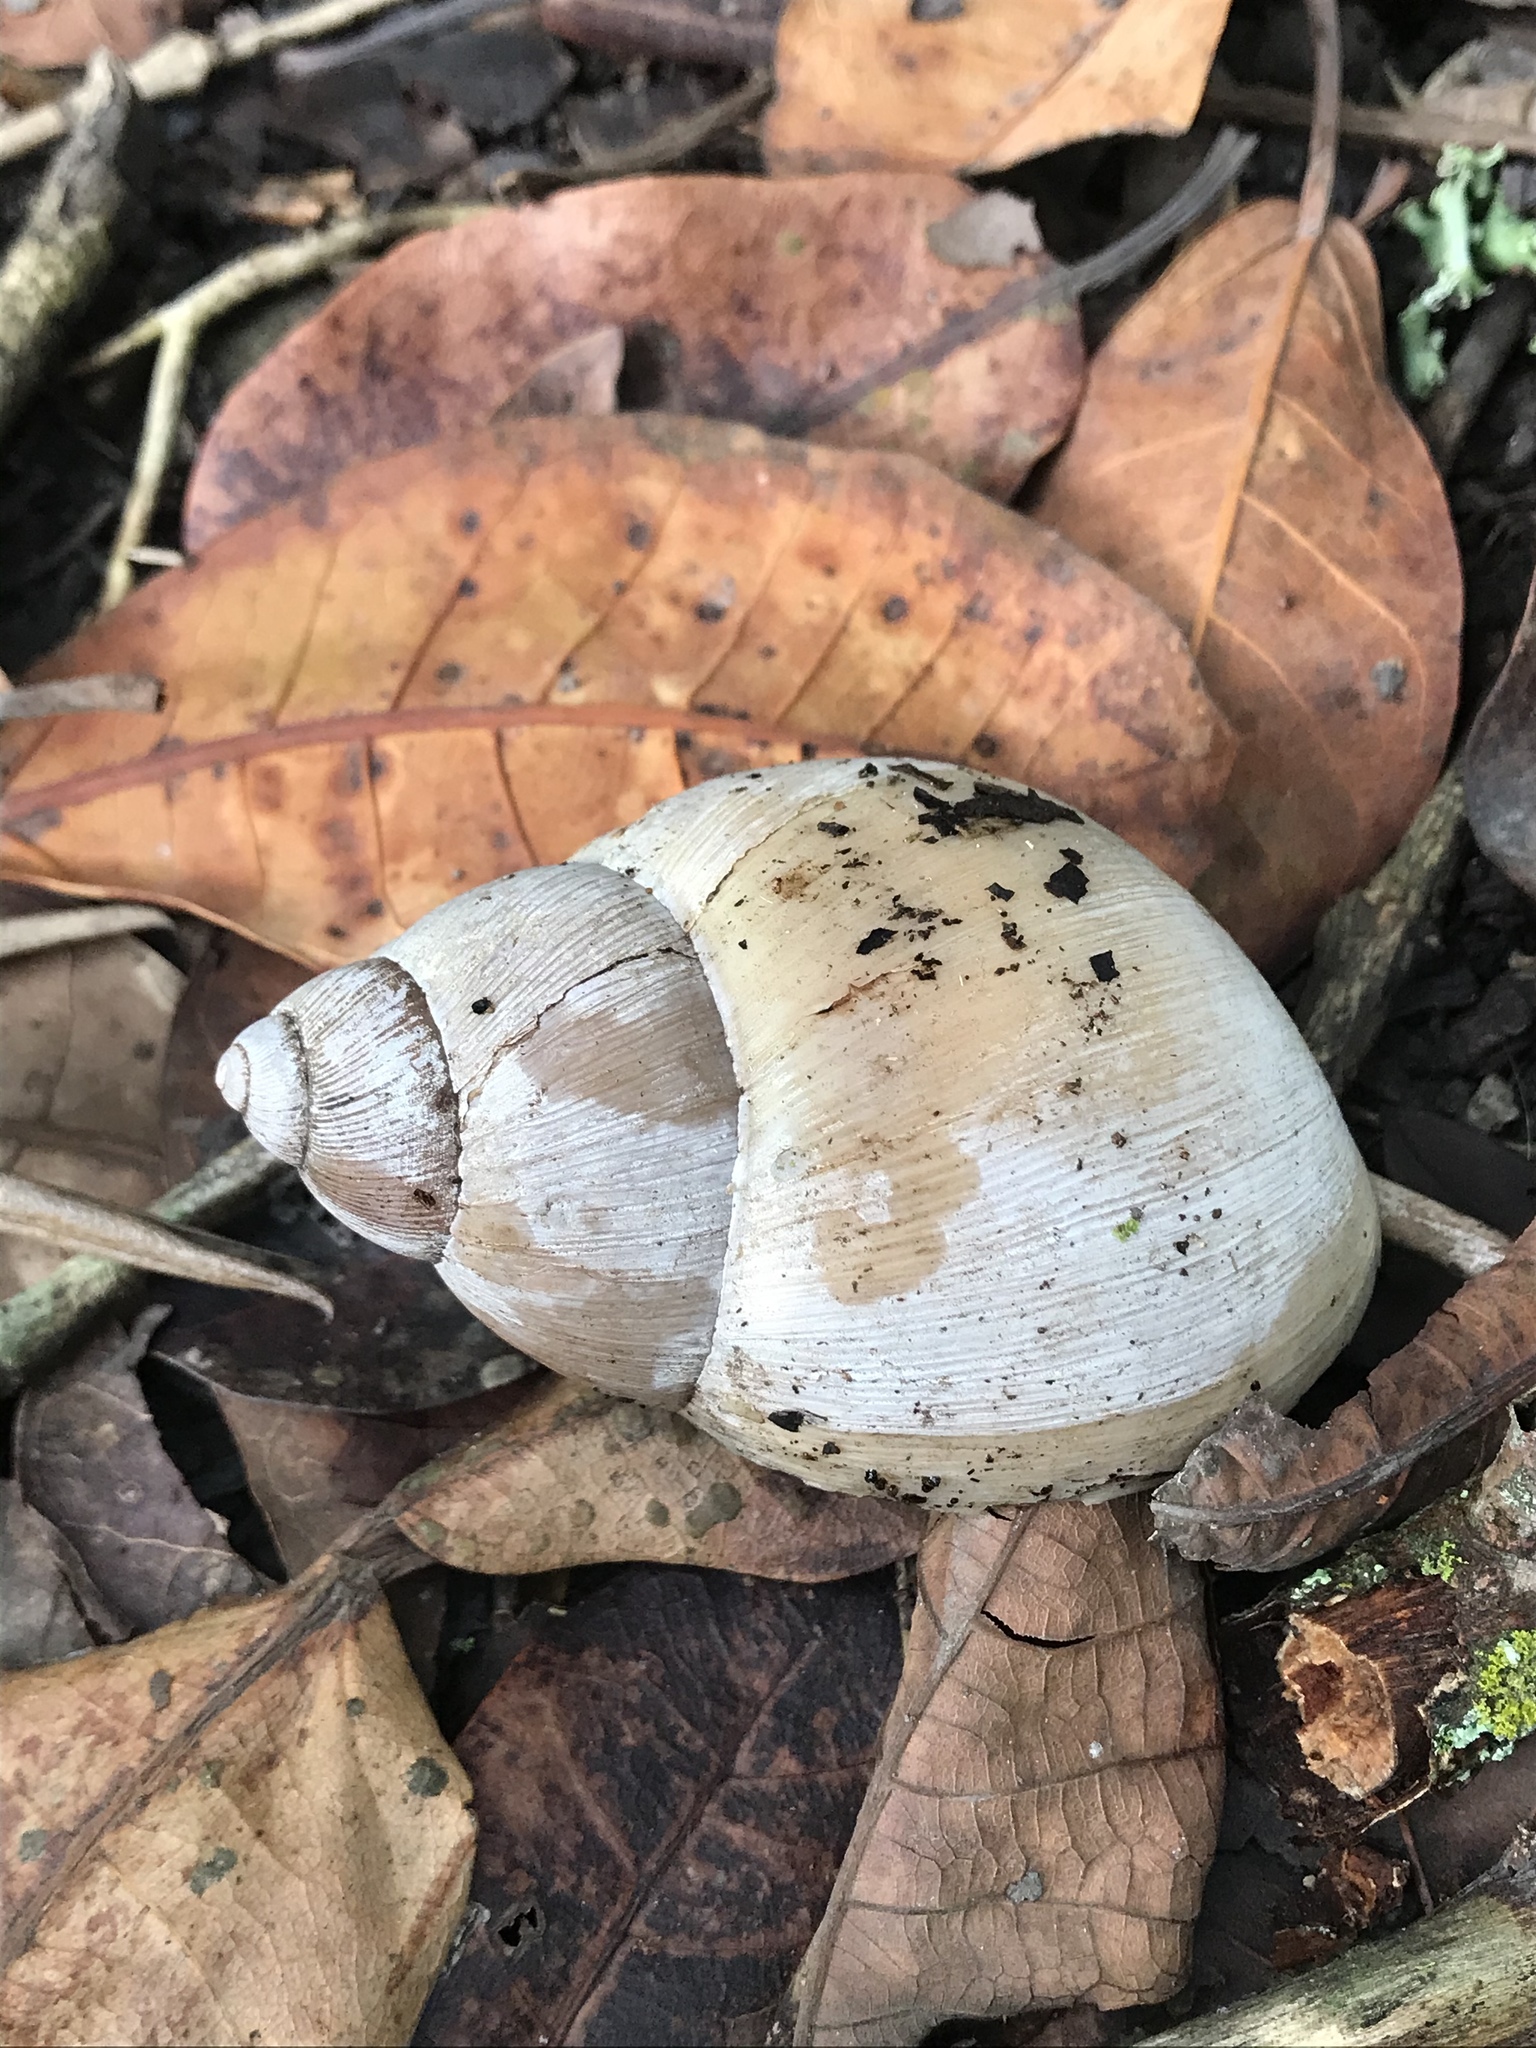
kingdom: Animalia
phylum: Mollusca
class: Gastropoda
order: Stylommatophora
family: Strophocheilidae
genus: Megalobulimus
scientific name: Megalobulimus oblongus
